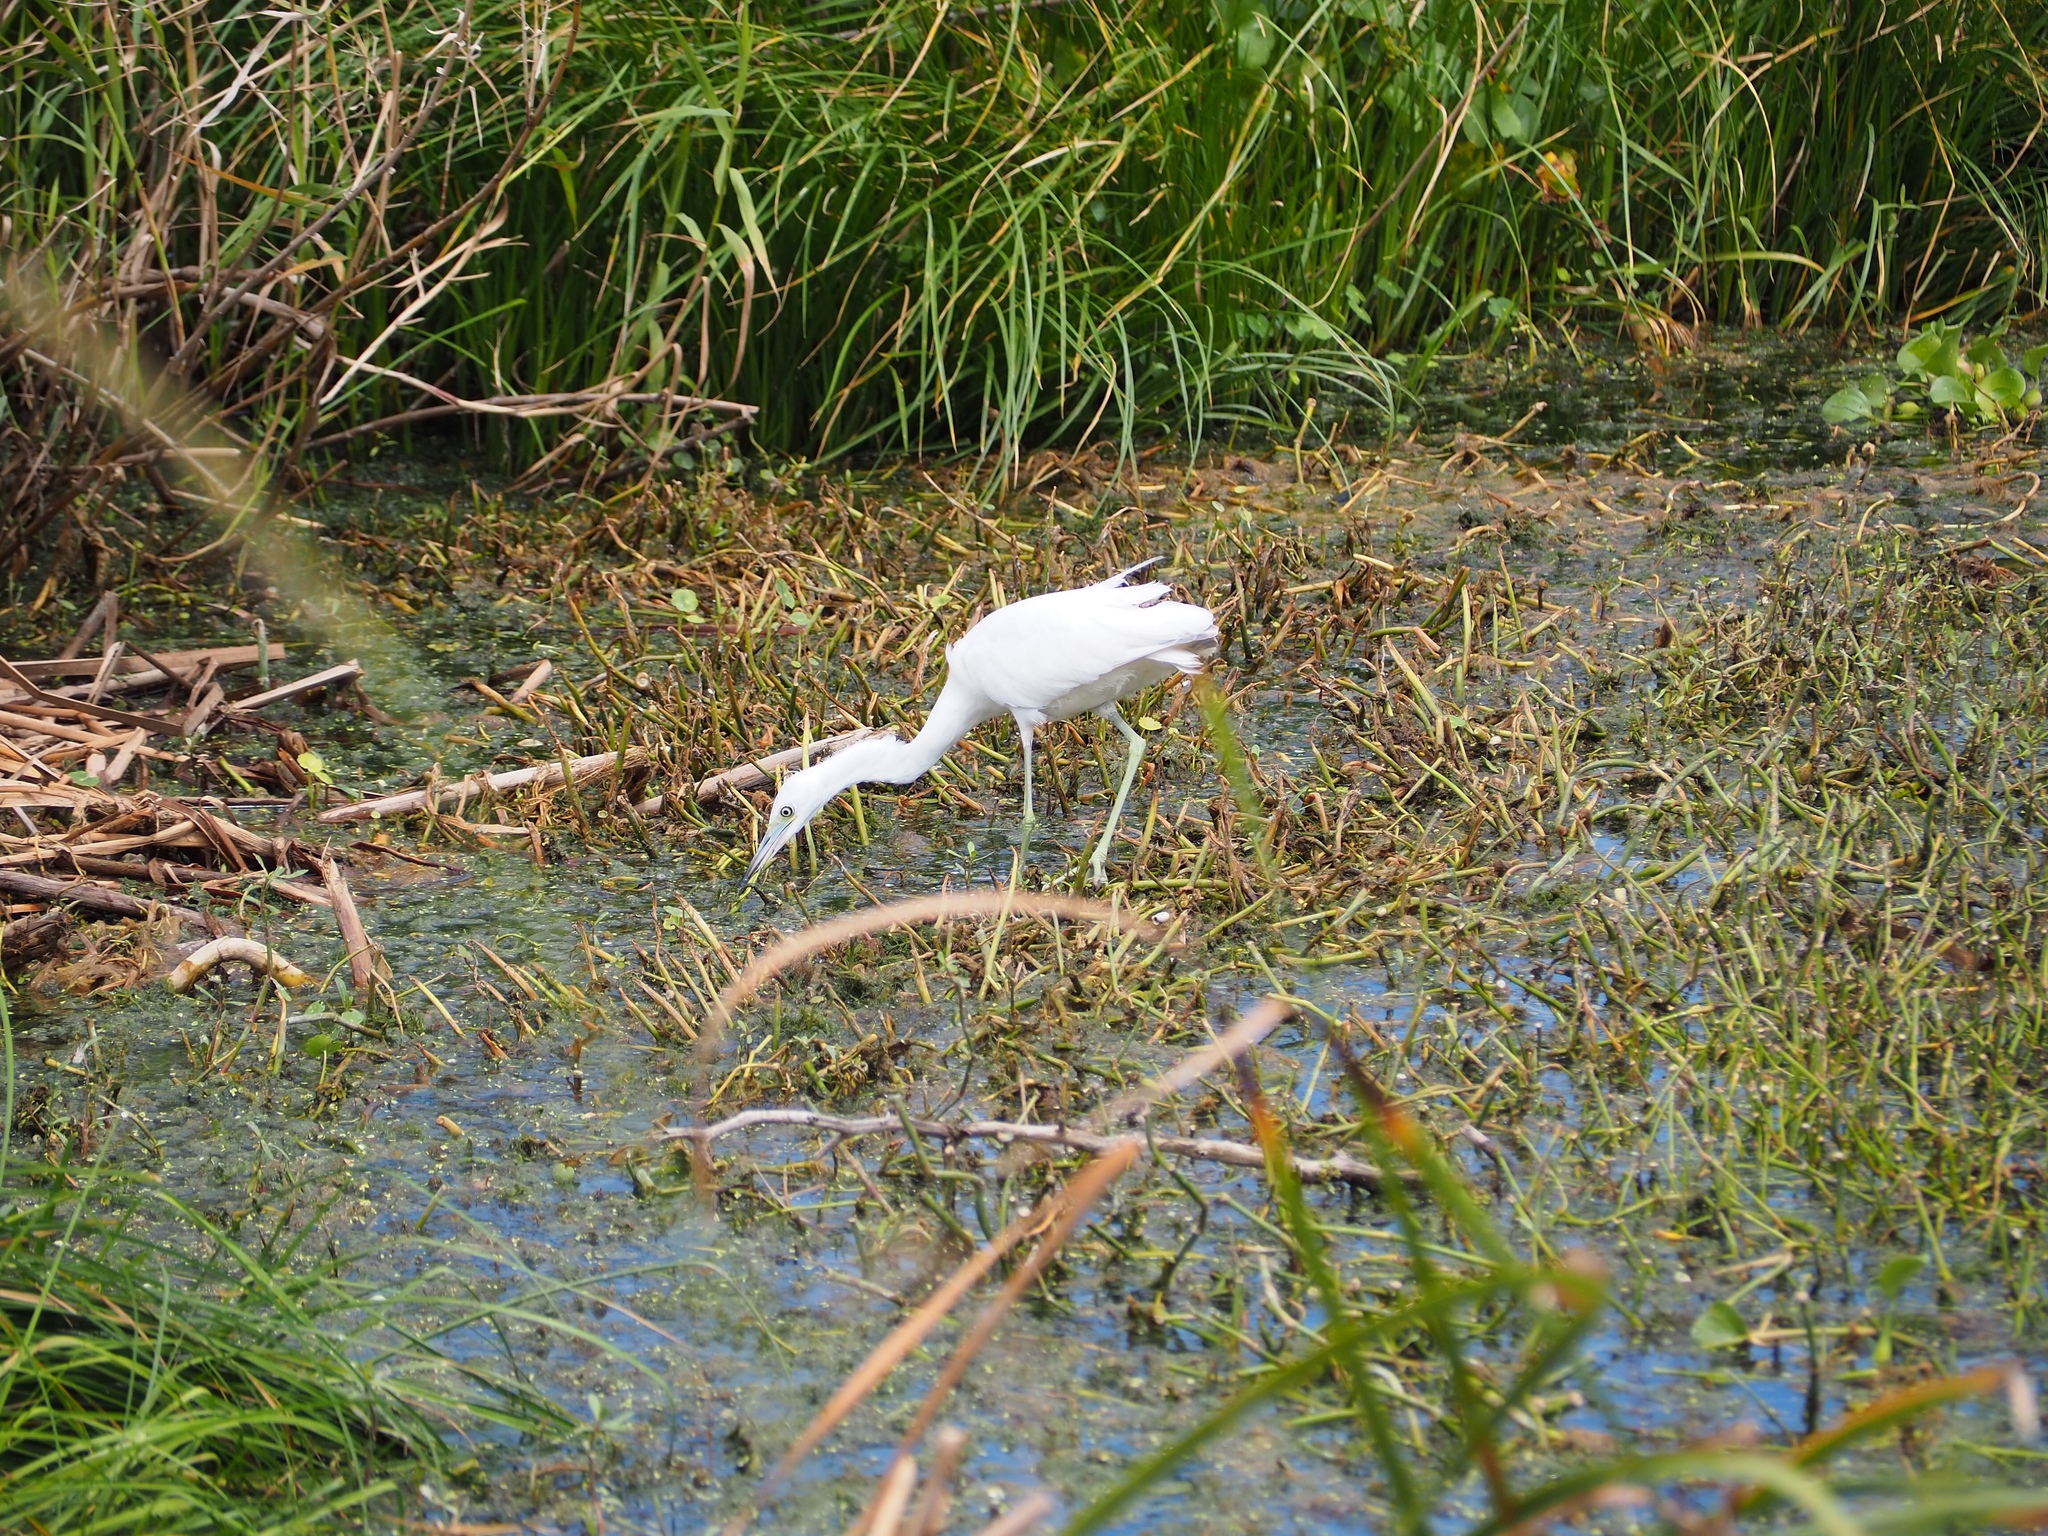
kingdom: Animalia
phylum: Chordata
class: Aves
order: Pelecaniformes
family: Ardeidae
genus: Egretta
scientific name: Egretta caerulea
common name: Little blue heron
